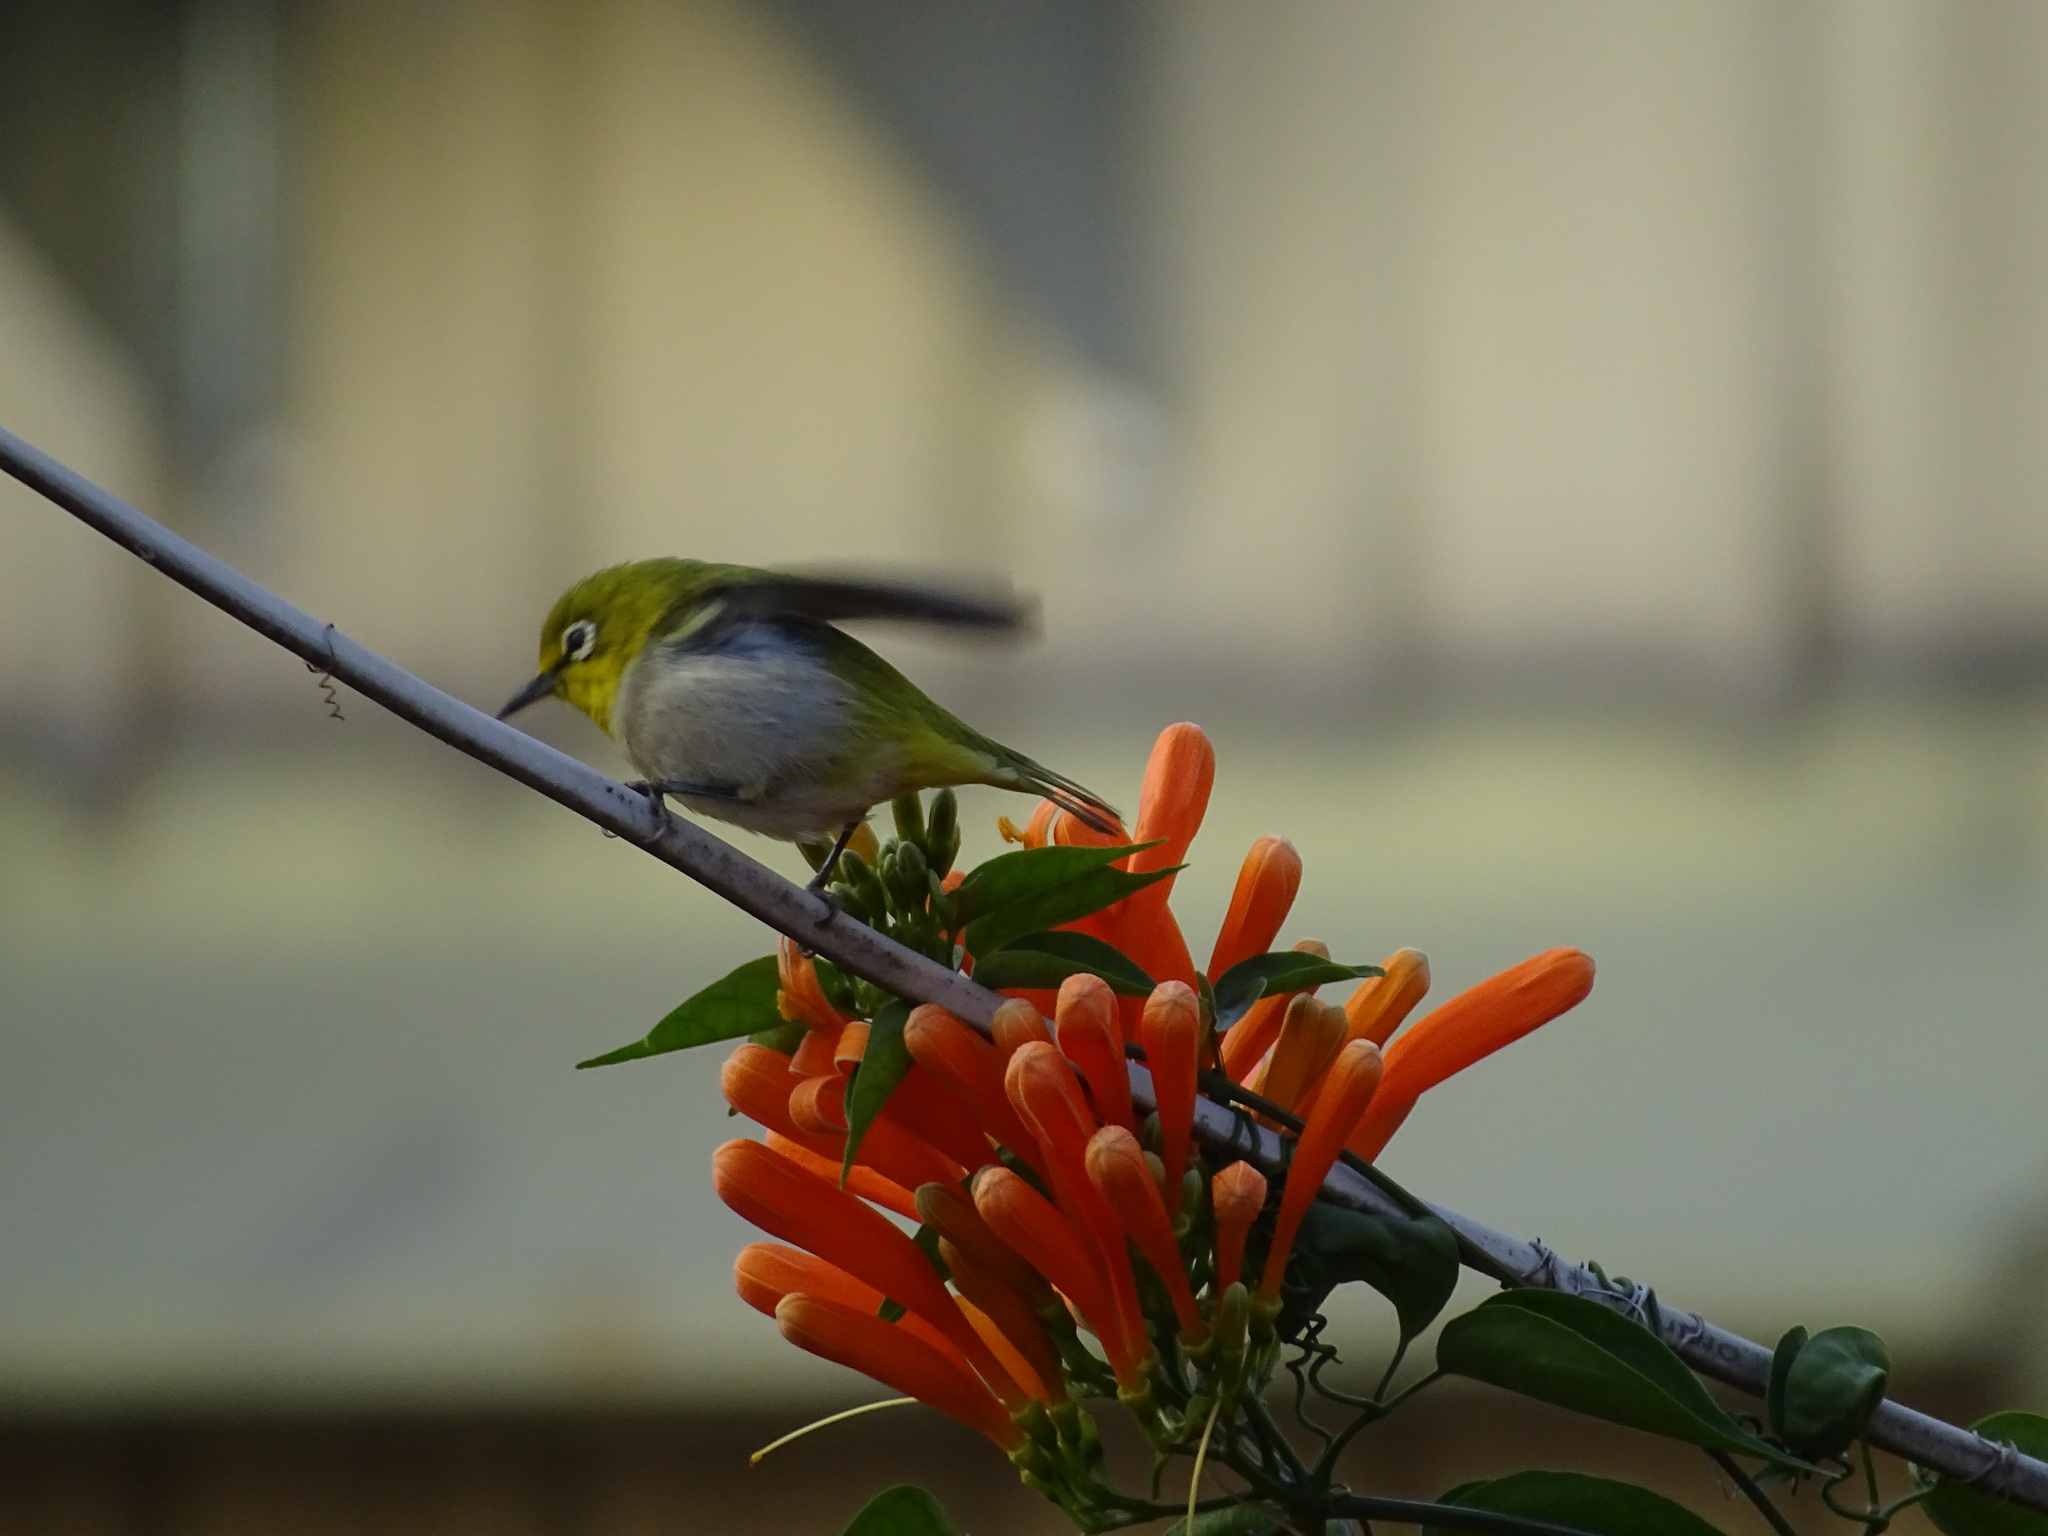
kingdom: Animalia
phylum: Chordata
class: Aves
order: Passeriformes
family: Zosteropidae
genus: Zosterops
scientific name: Zosterops simplex
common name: Swinhoe's white-eye
